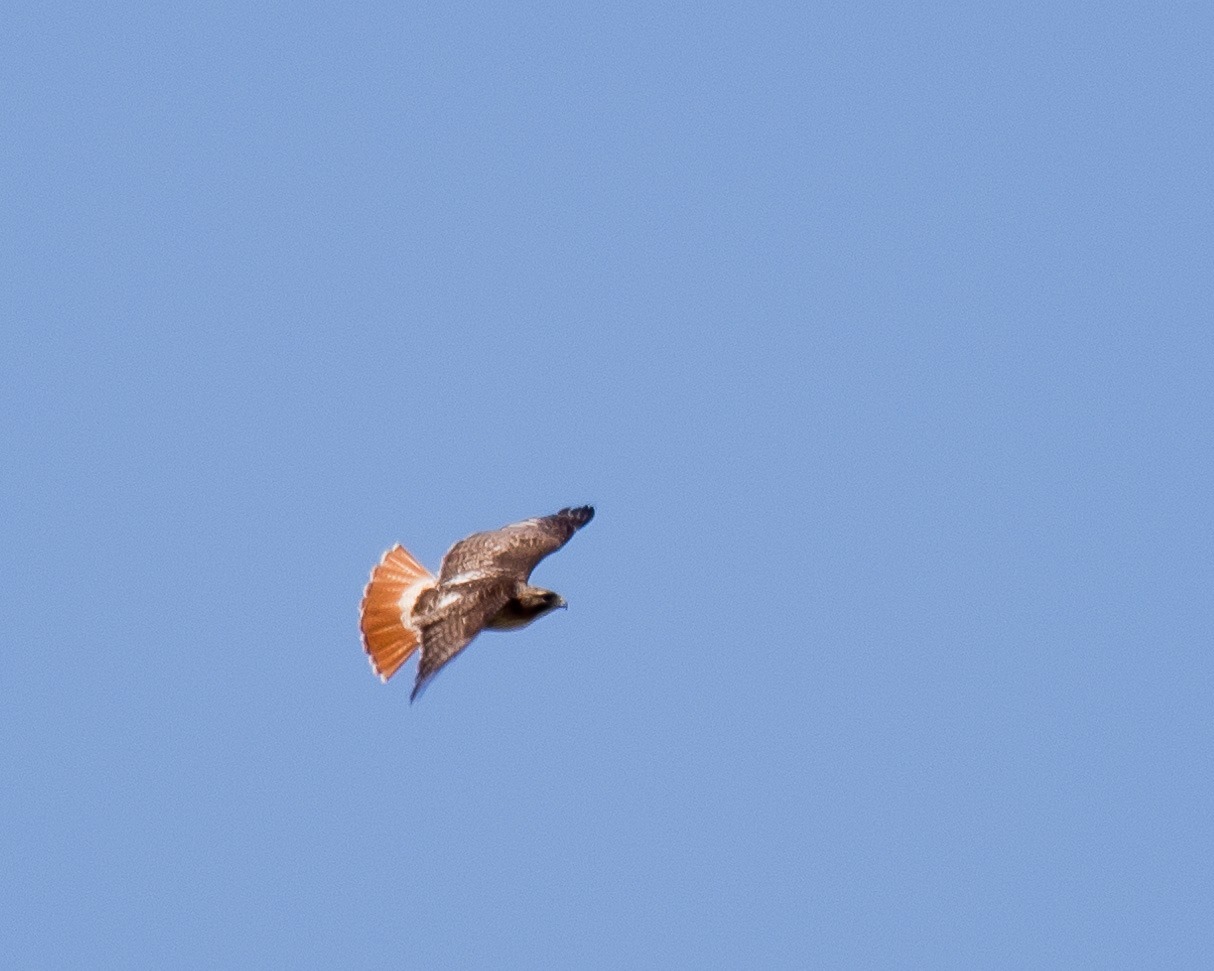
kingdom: Animalia
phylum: Chordata
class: Aves
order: Accipitriformes
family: Accipitridae
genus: Buteo
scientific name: Buteo jamaicensis
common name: Red-tailed hawk
